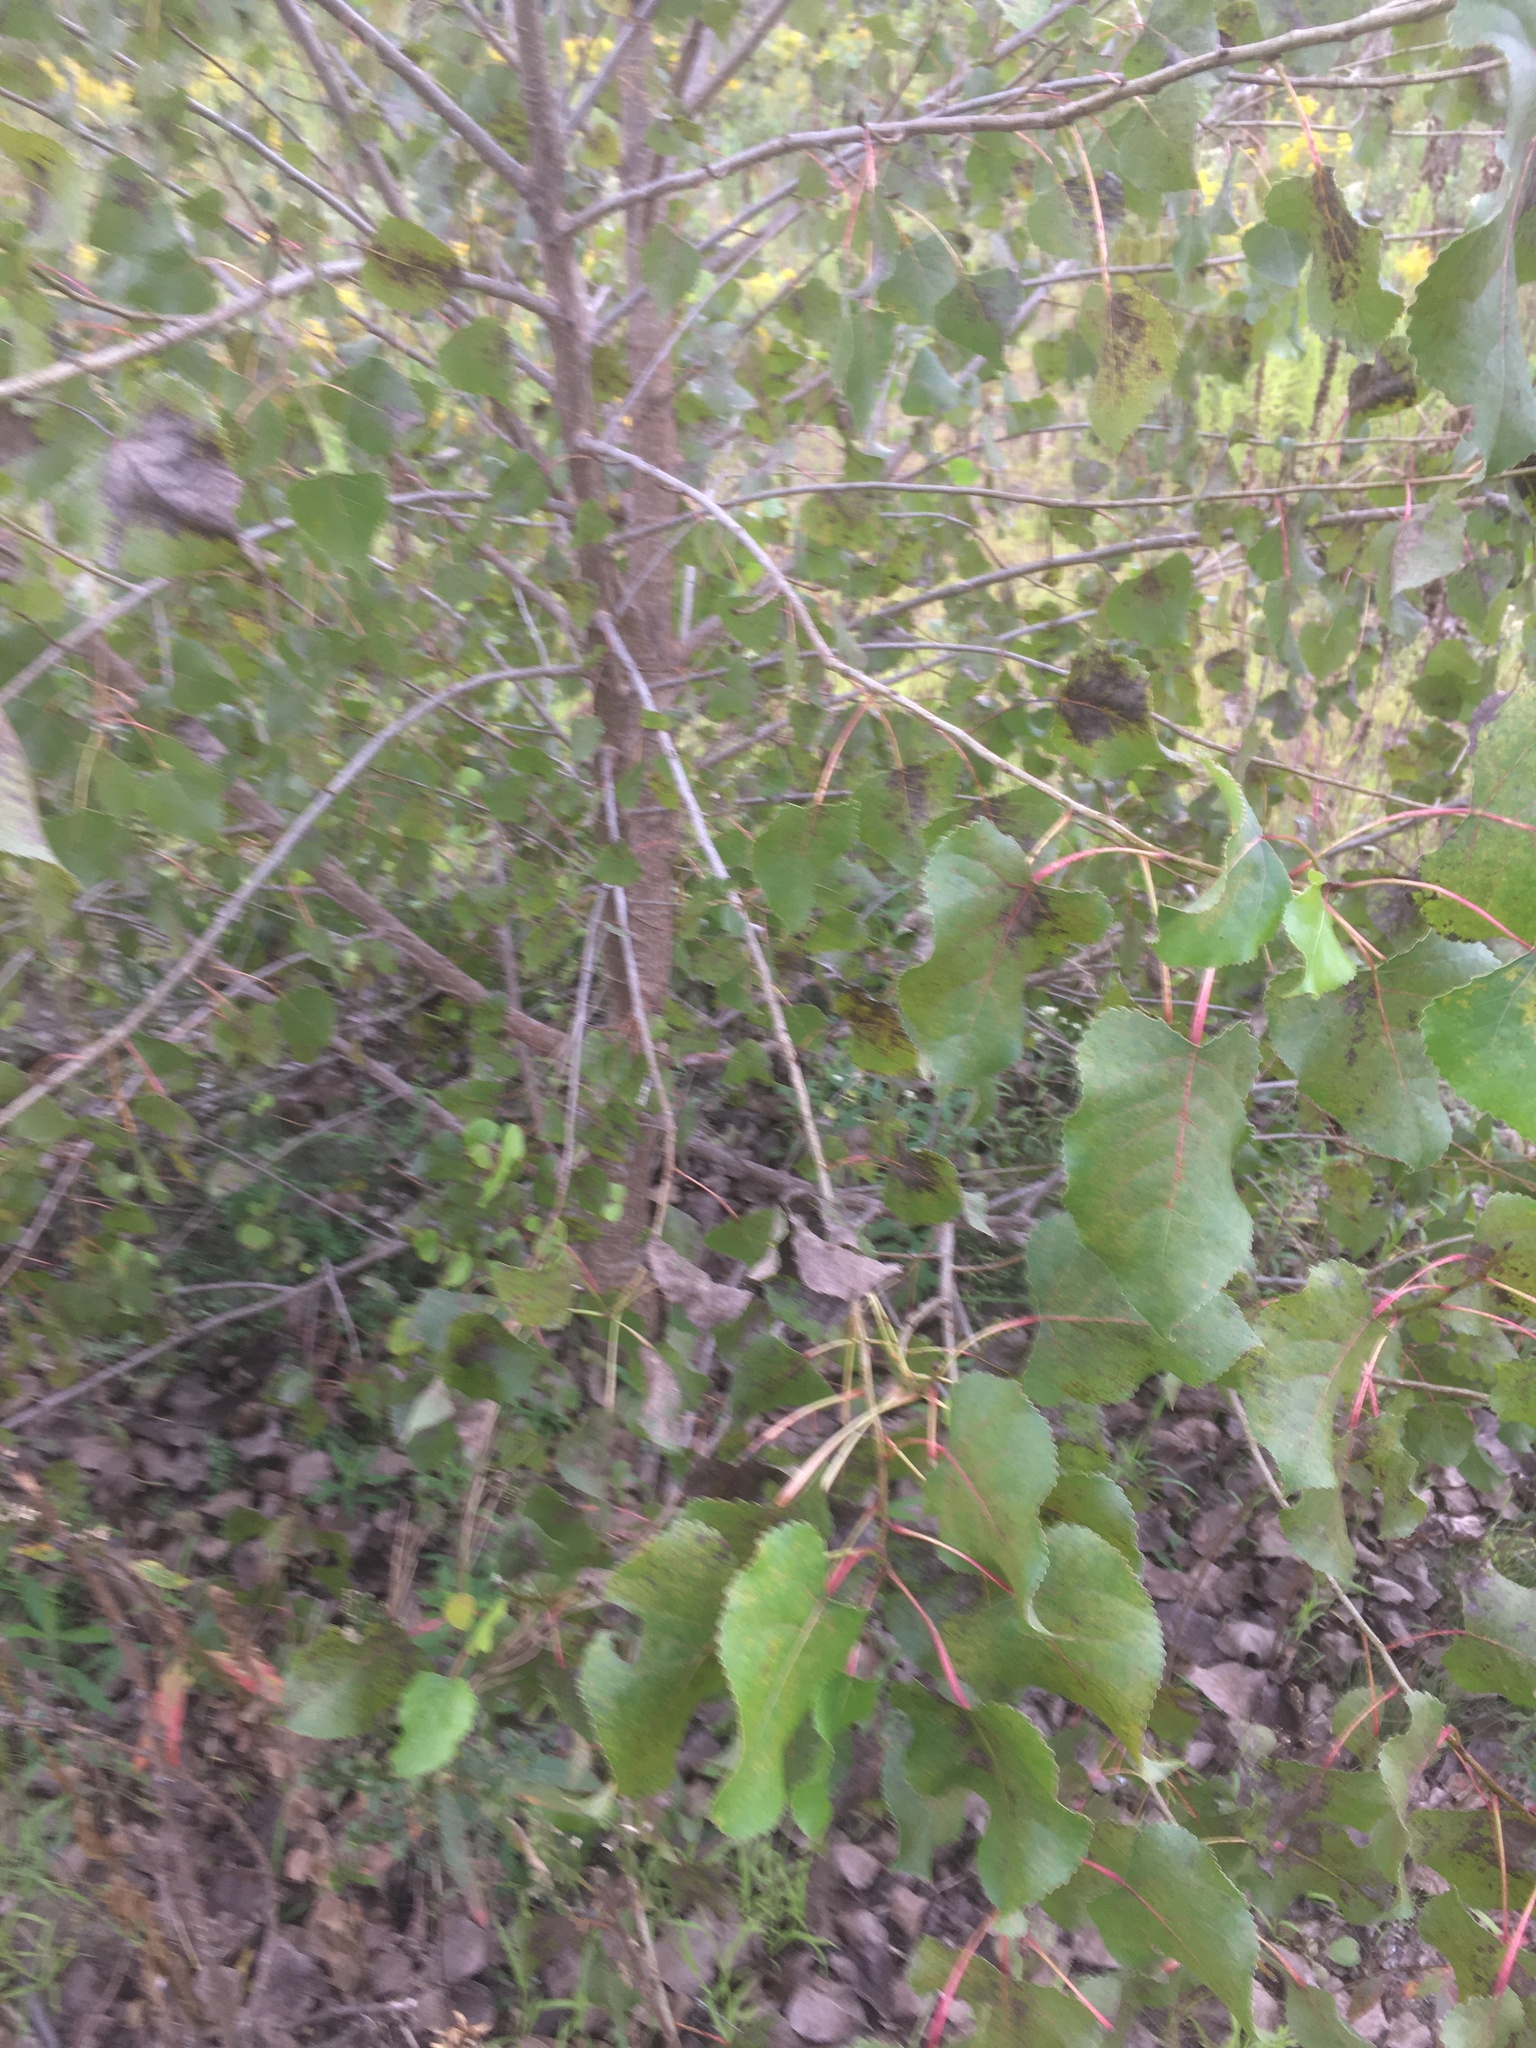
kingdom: Plantae
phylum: Tracheophyta
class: Magnoliopsida
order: Malpighiales
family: Salicaceae
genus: Populus
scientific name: Populus deltoides
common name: Eastern cottonwood
